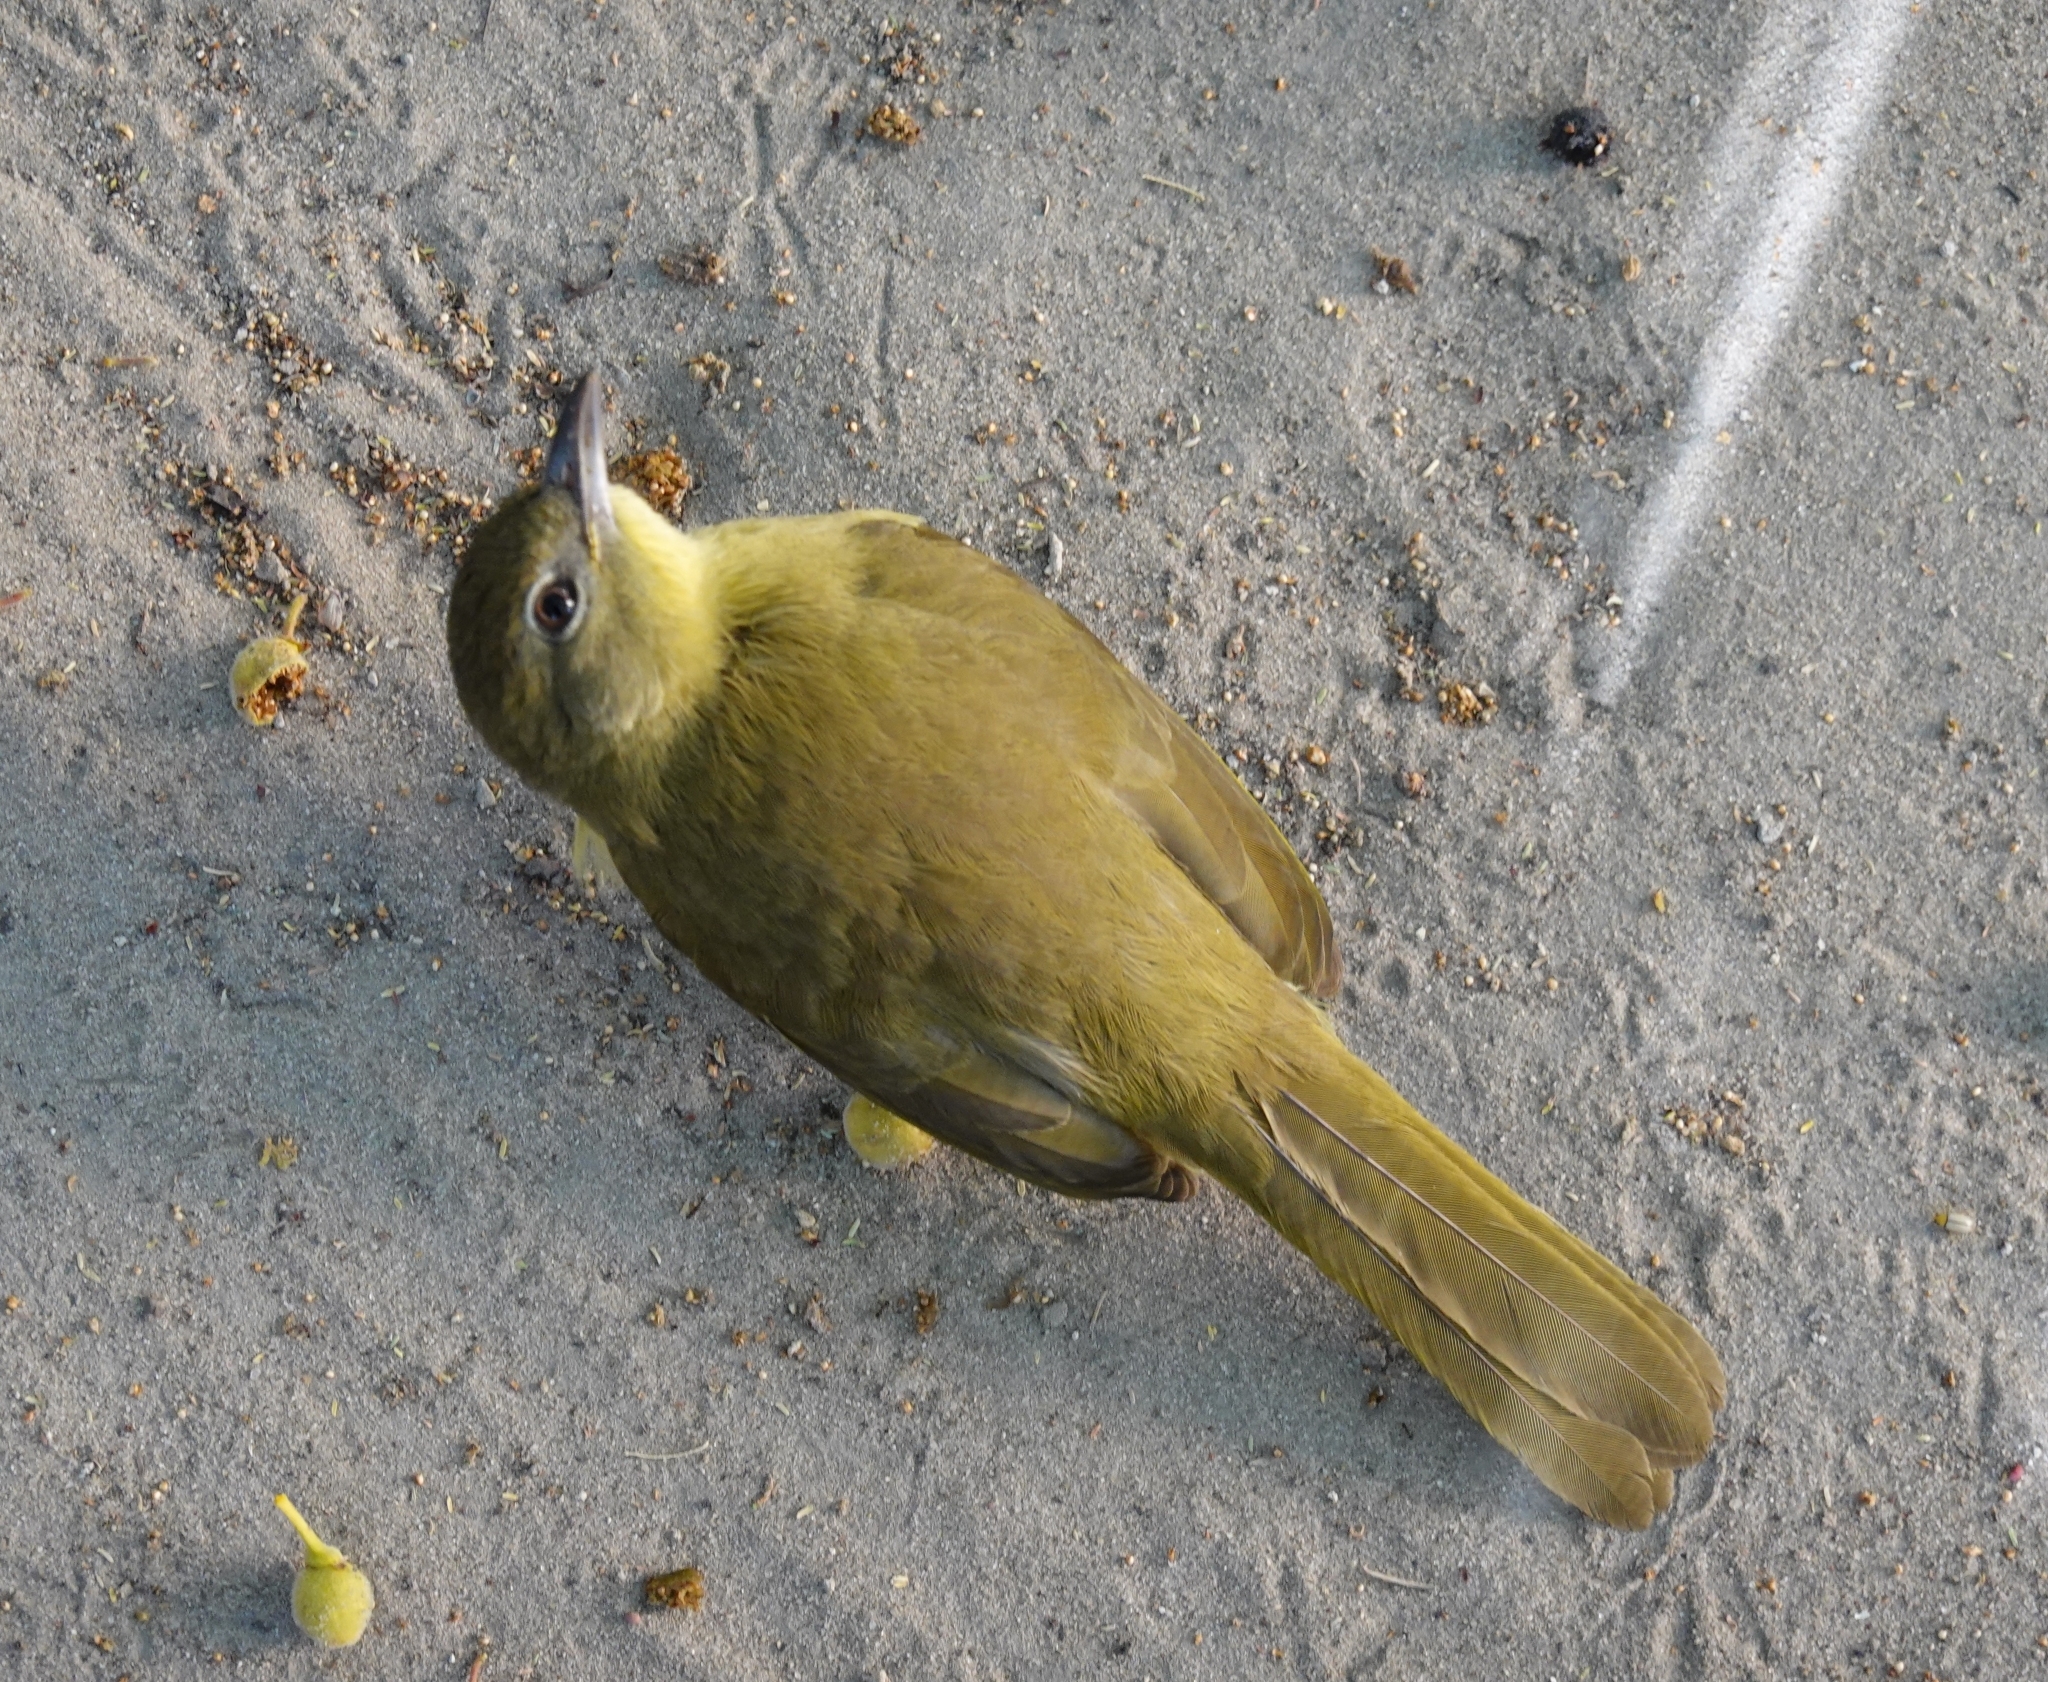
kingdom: Animalia
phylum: Chordata
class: Aves
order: Passeriformes
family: Pycnonotidae
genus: Chlorocichla
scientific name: Chlorocichla flaviventris
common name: Yellow-bellied greenbul
